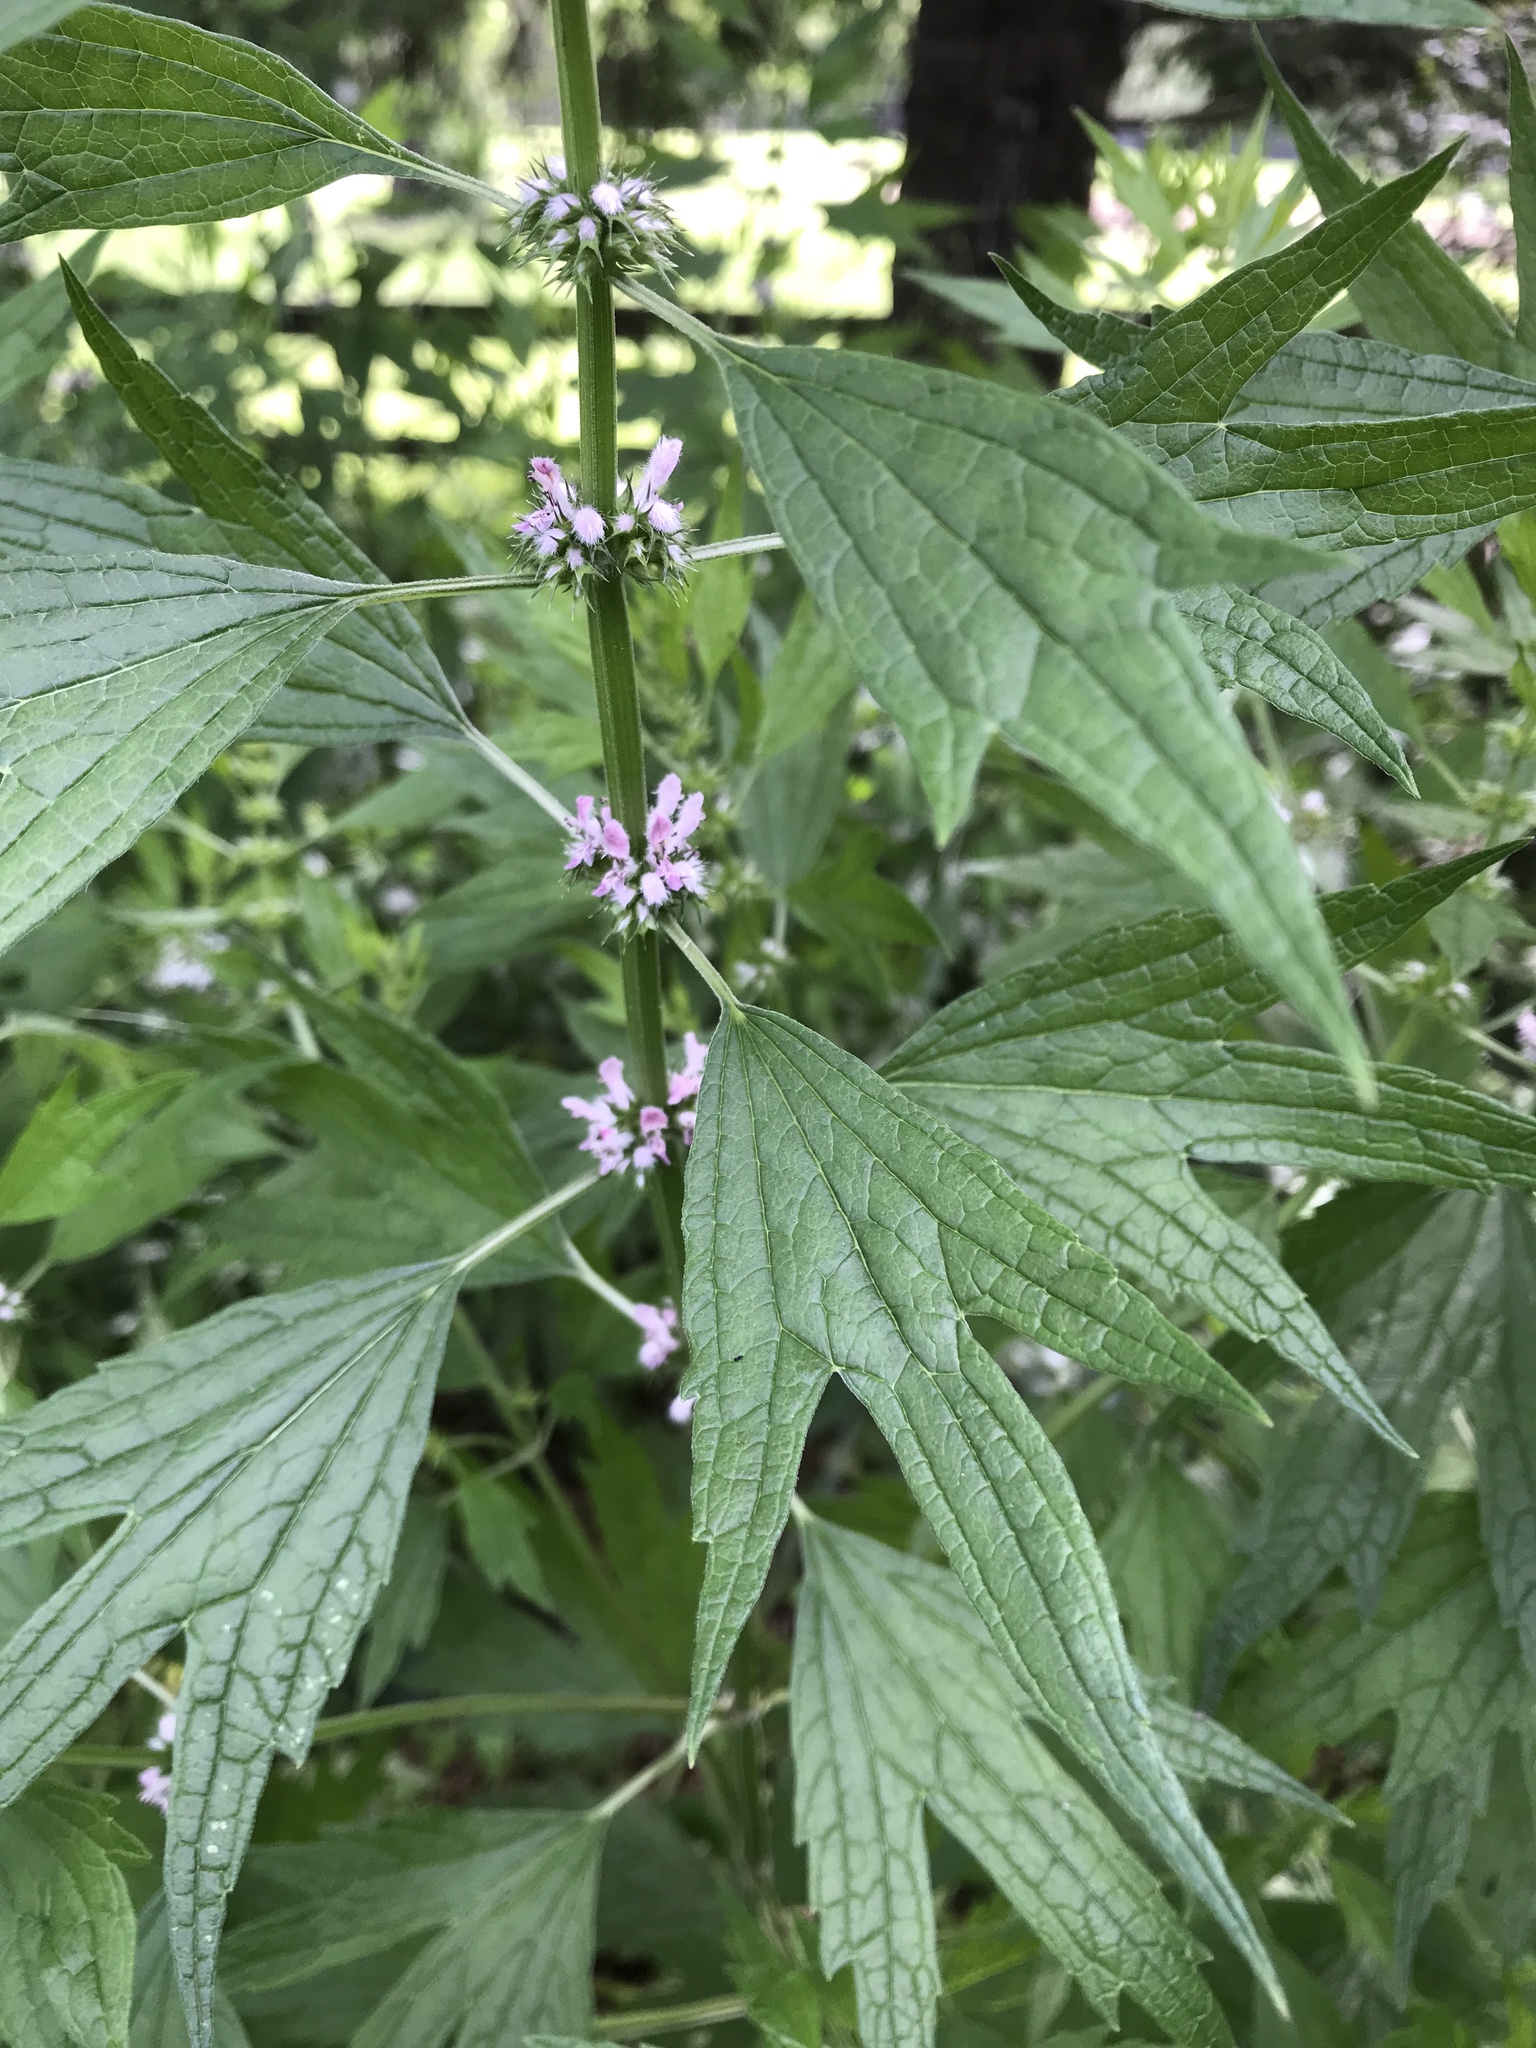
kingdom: Plantae
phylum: Tracheophyta
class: Magnoliopsida
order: Lamiales
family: Lamiaceae
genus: Leonurus
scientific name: Leonurus cardiaca
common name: Motherwort
